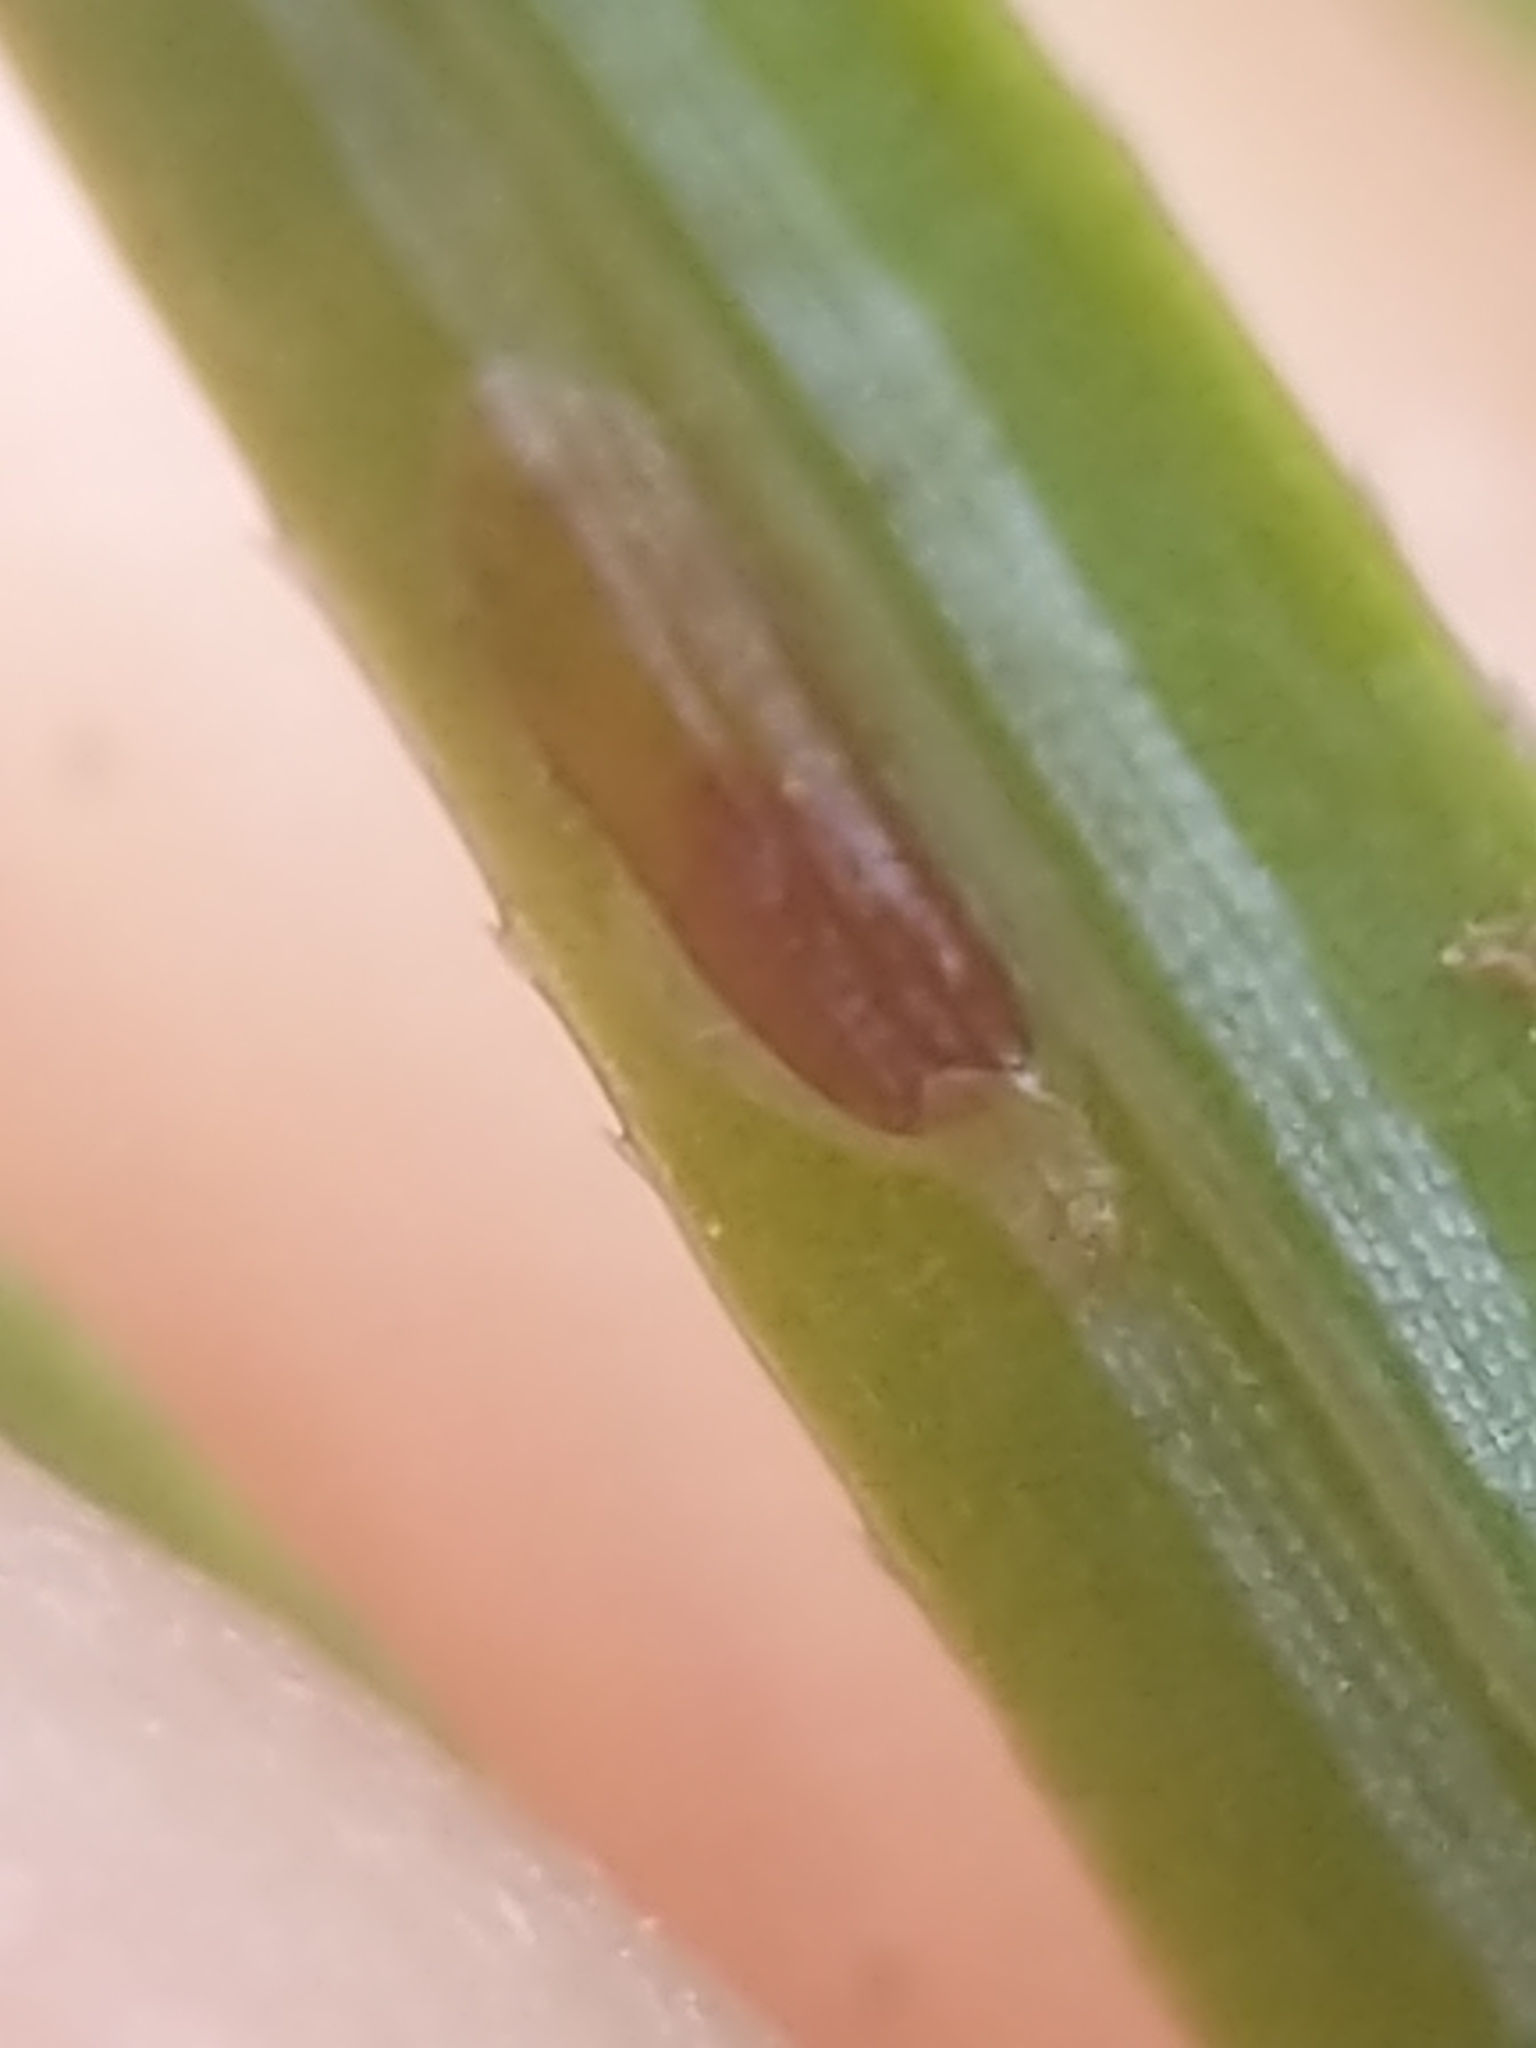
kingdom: Animalia
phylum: Arthropoda
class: Insecta
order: Hemiptera
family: Diaspididae
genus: Fiorinia
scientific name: Fiorinia externa
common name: Elongate hemlock scale
